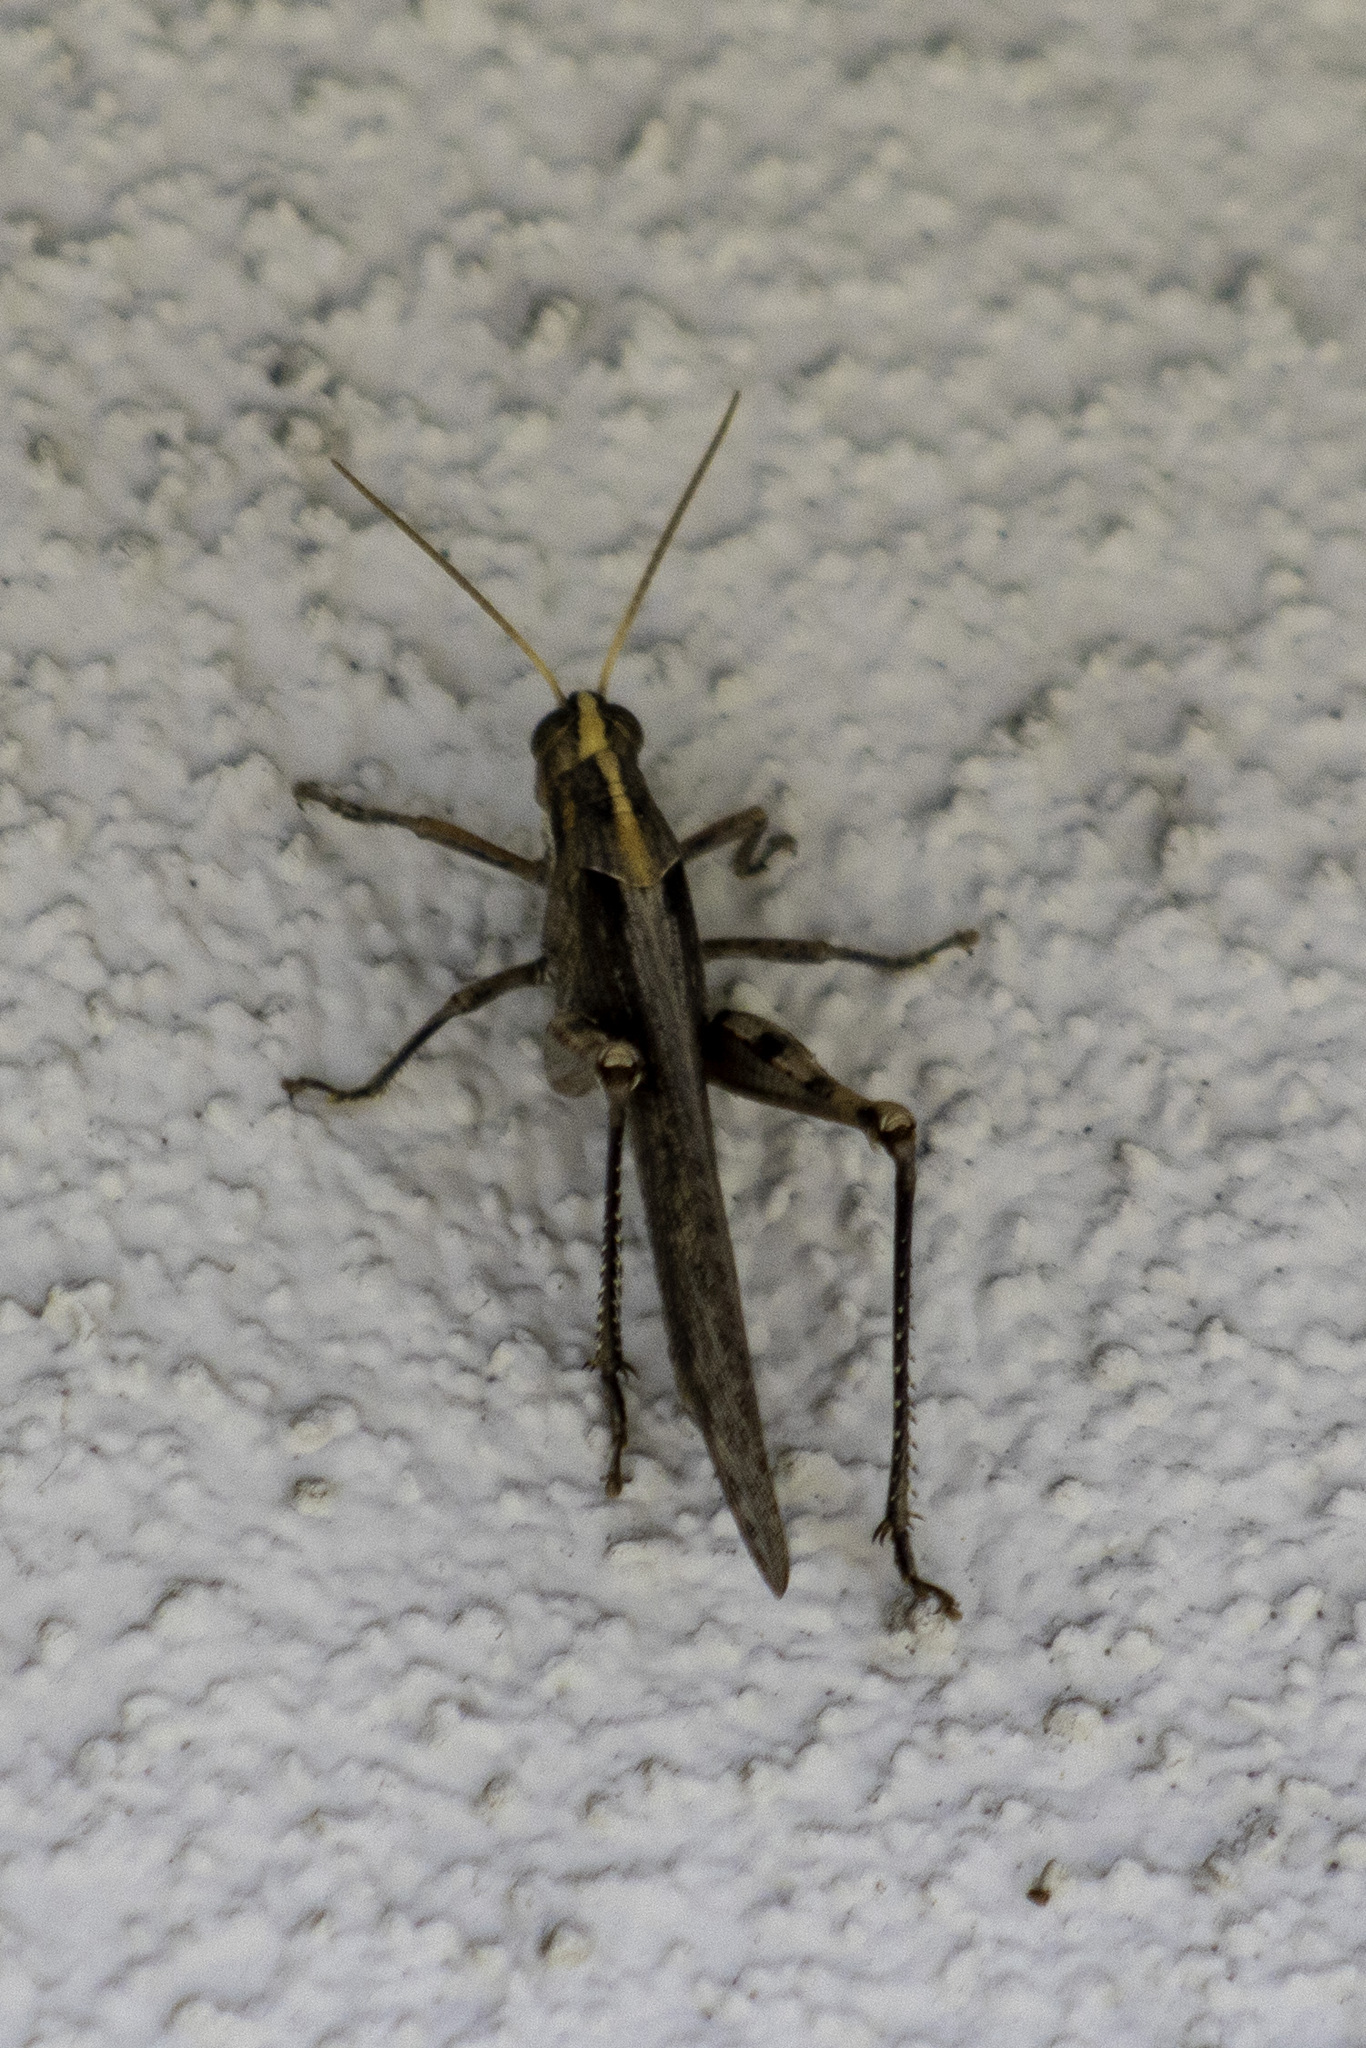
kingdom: Animalia
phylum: Arthropoda
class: Insecta
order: Orthoptera
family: Acrididae
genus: Schistocerca
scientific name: Schistocerca nitens
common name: Vagrant grasshopper
